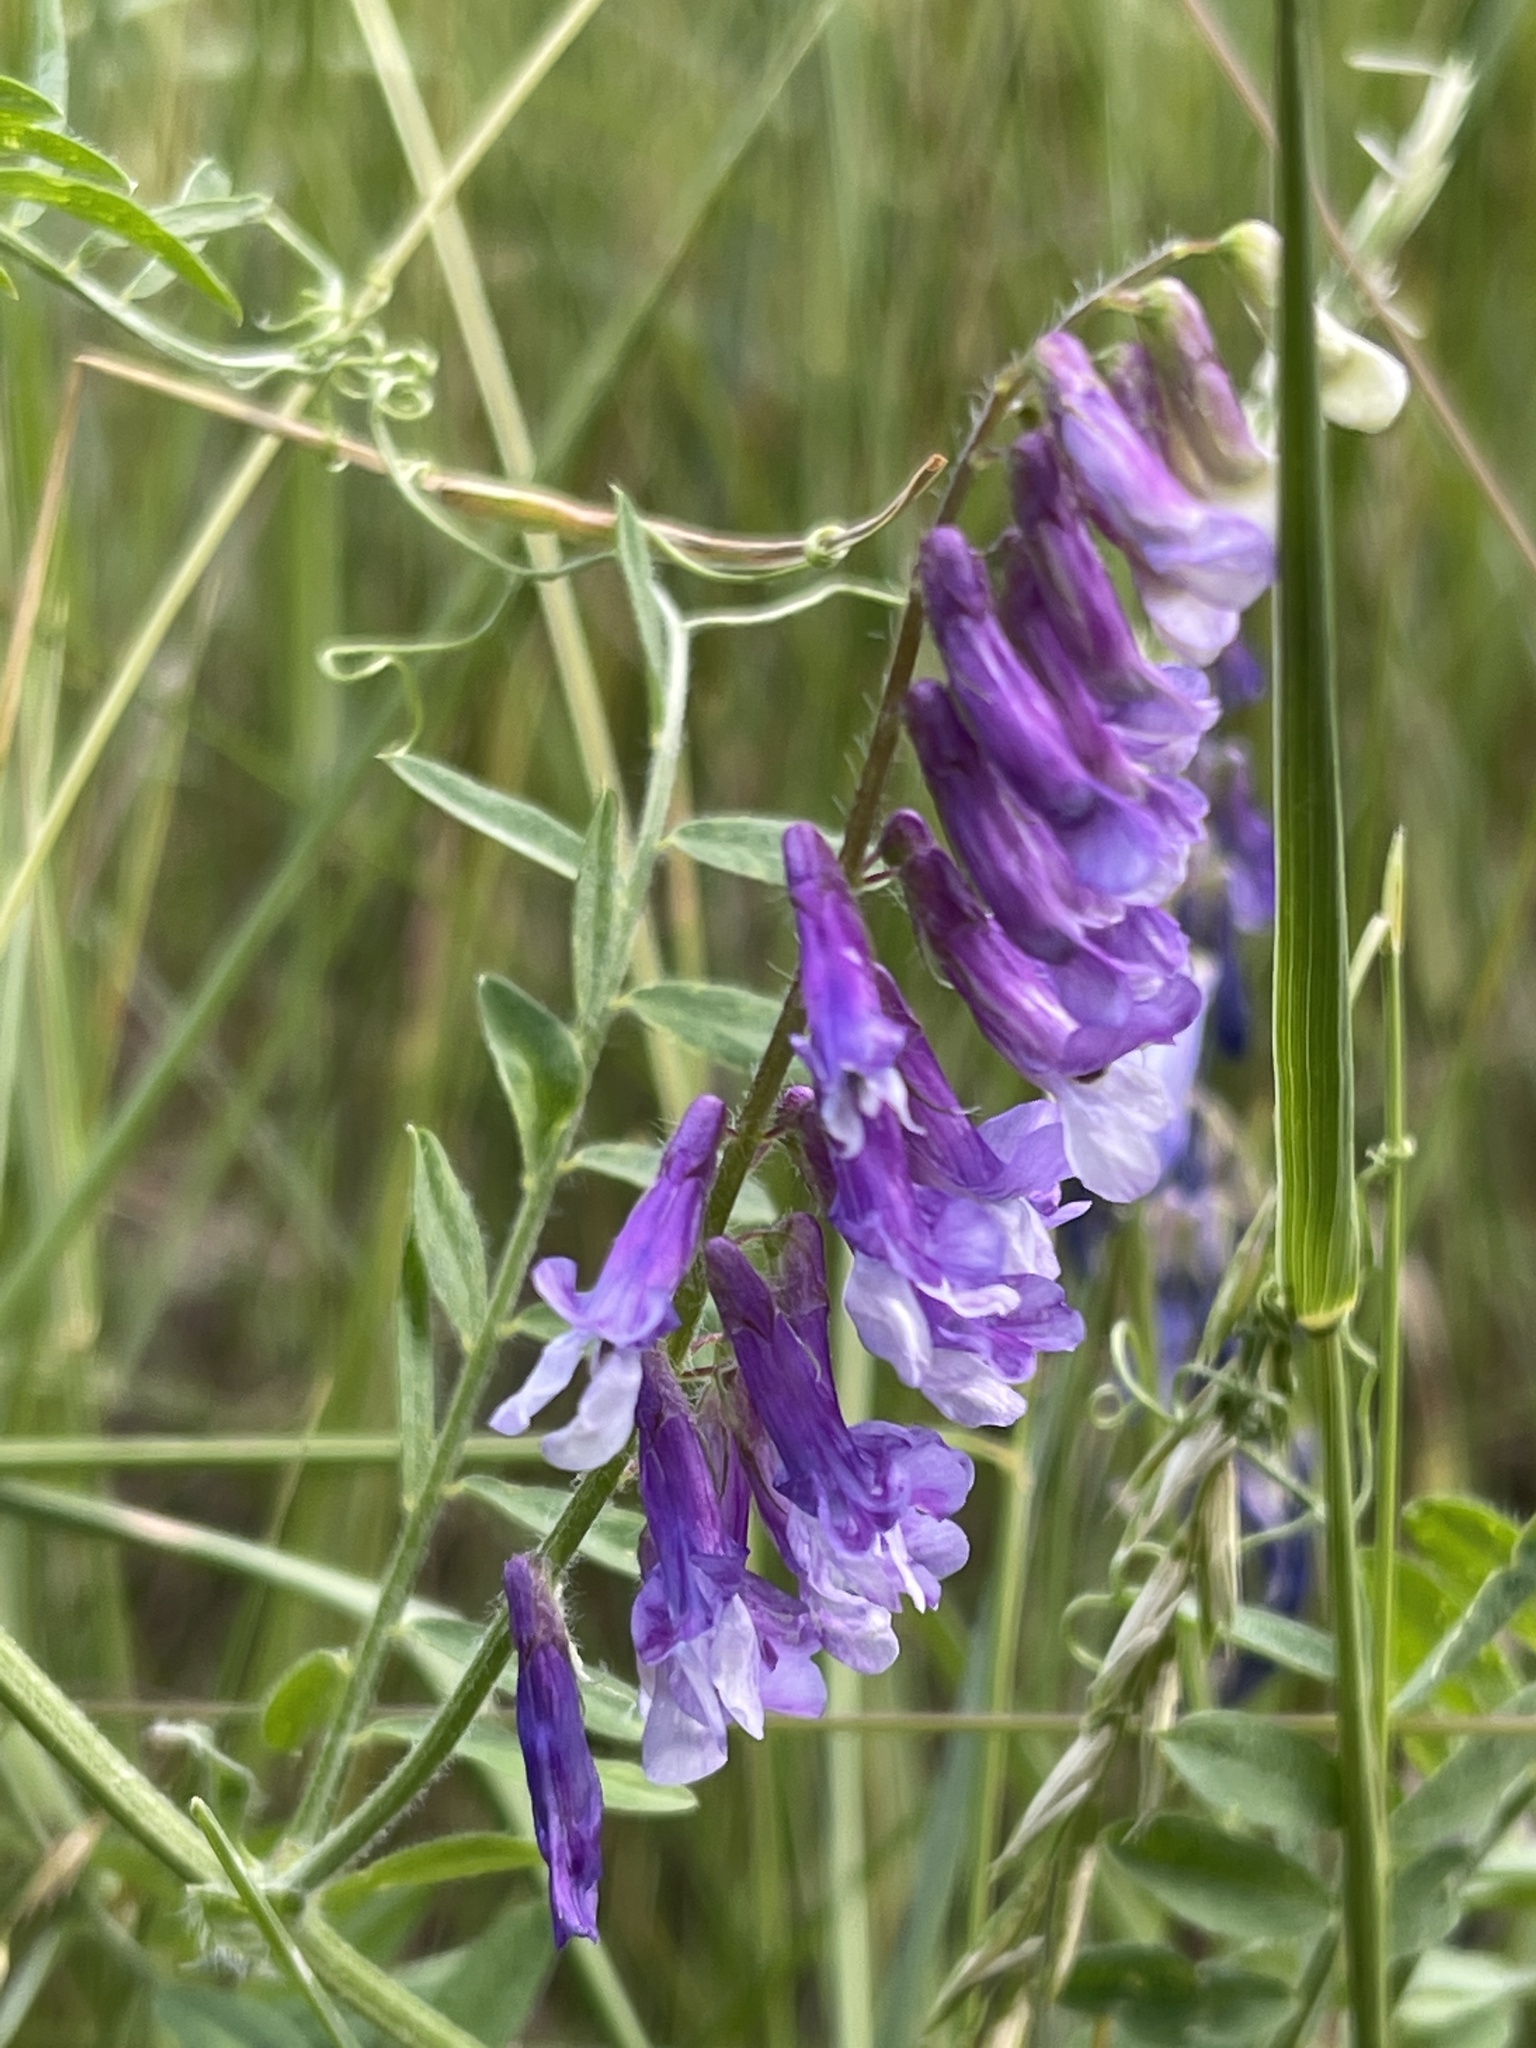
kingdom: Plantae
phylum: Tracheophyta
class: Magnoliopsida
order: Fabales
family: Fabaceae
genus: Vicia
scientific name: Vicia villosa
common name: Fodder vetch
